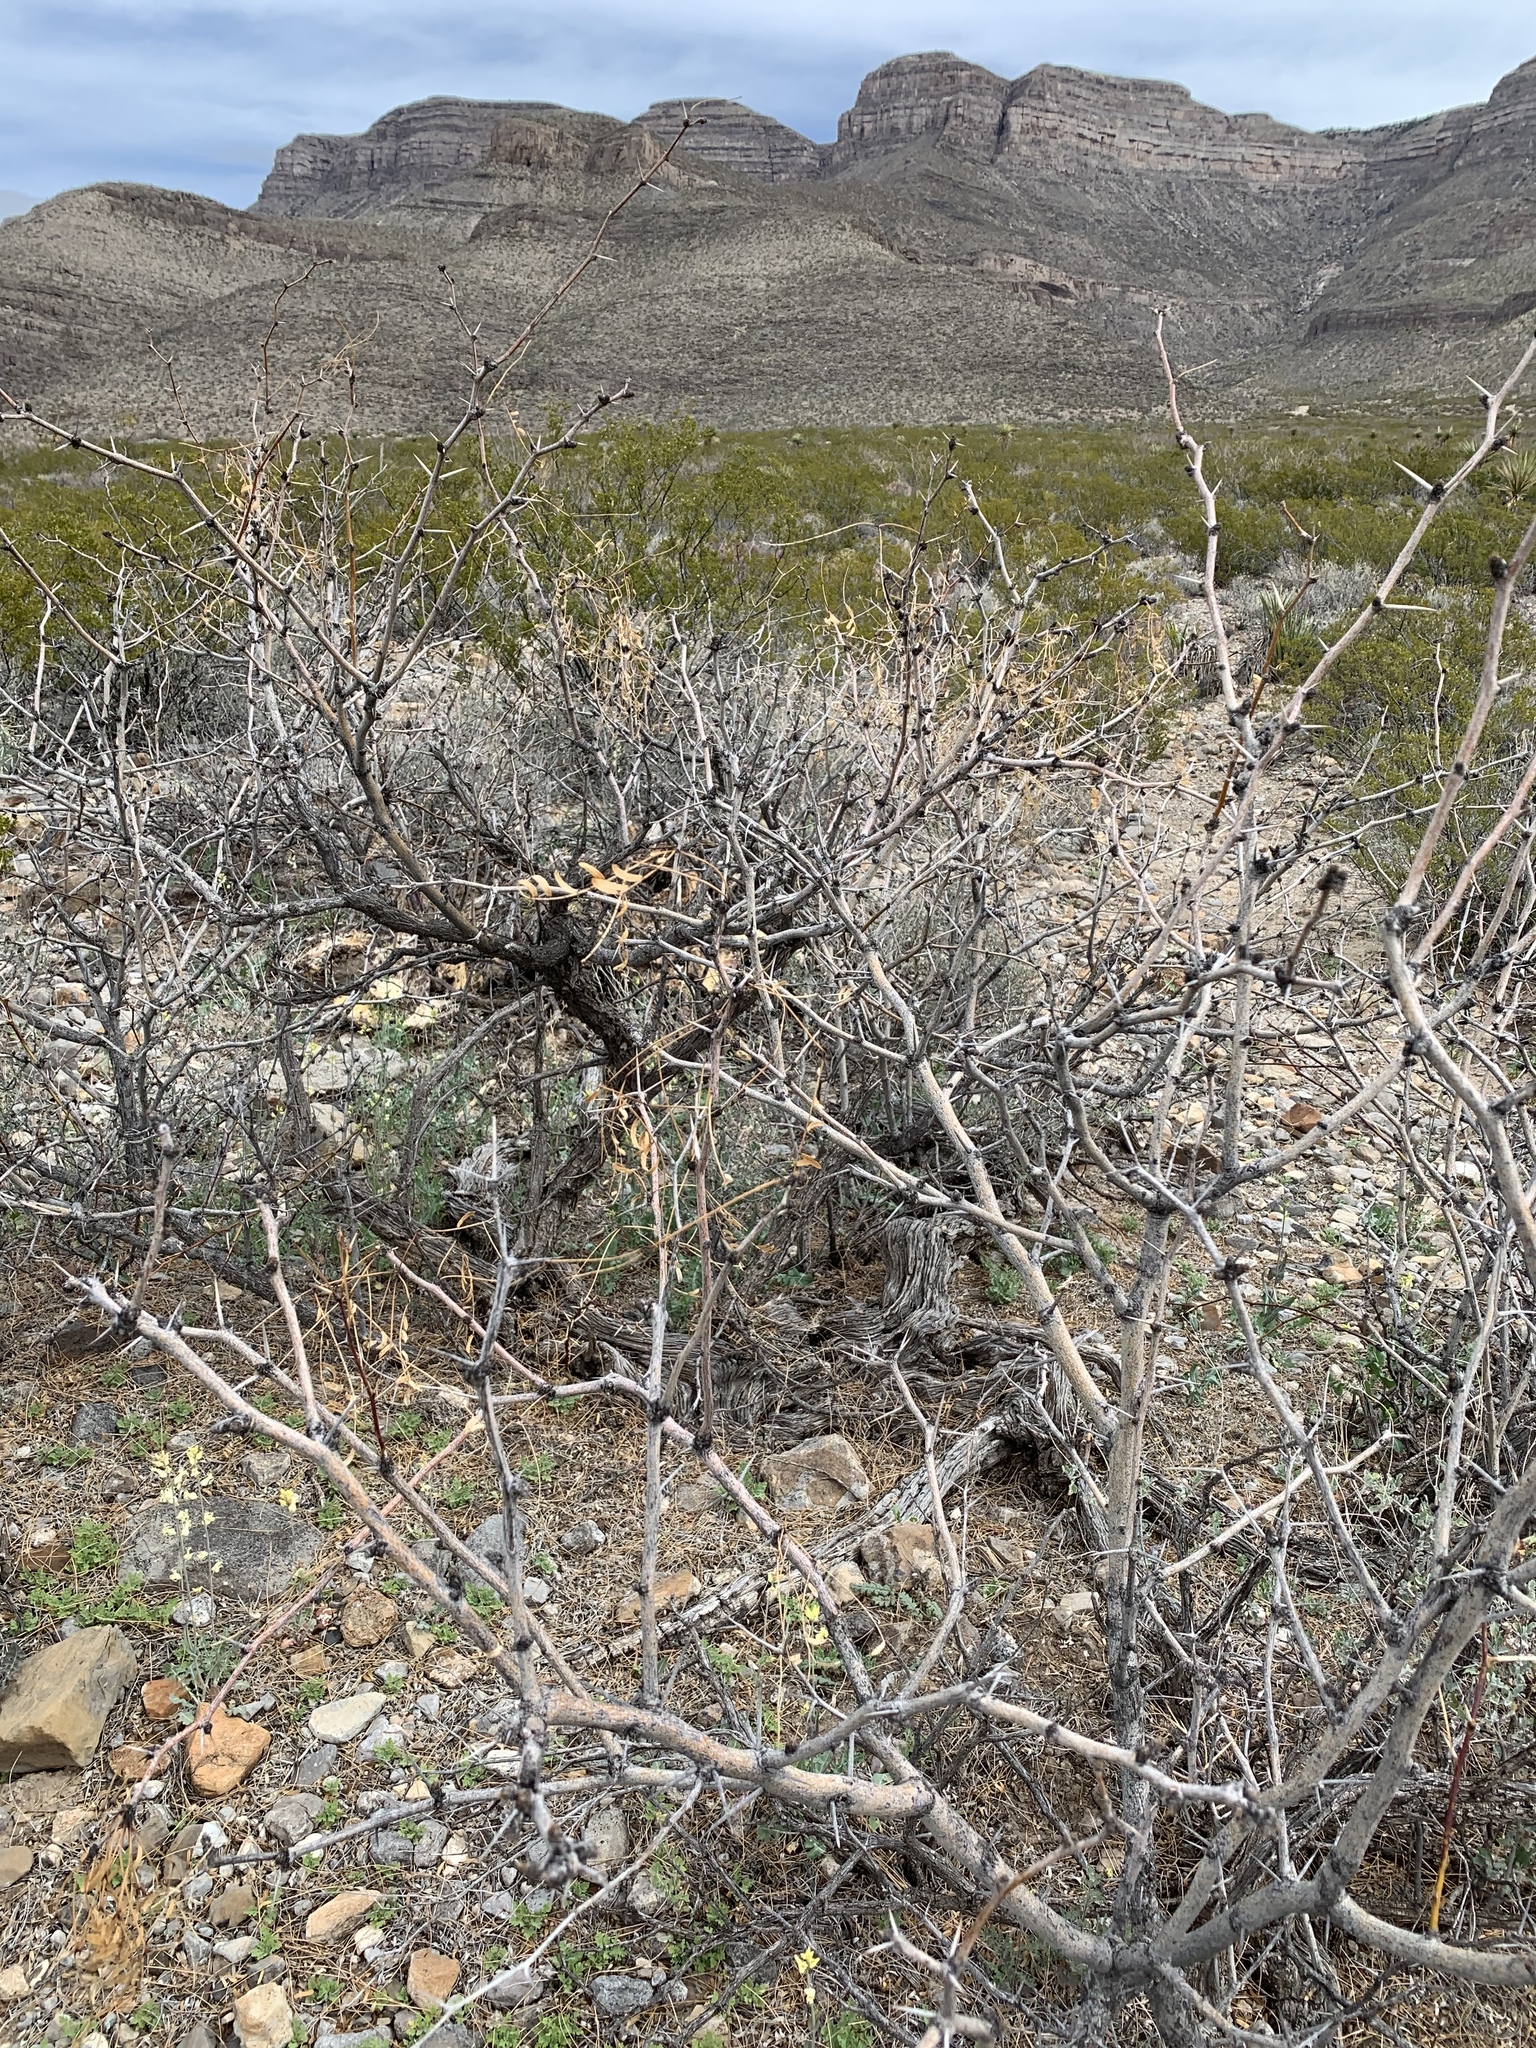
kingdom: Plantae
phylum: Tracheophyta
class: Magnoliopsida
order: Fabales
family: Fabaceae
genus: Prosopis
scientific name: Prosopis glandulosa
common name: Honey mesquite
